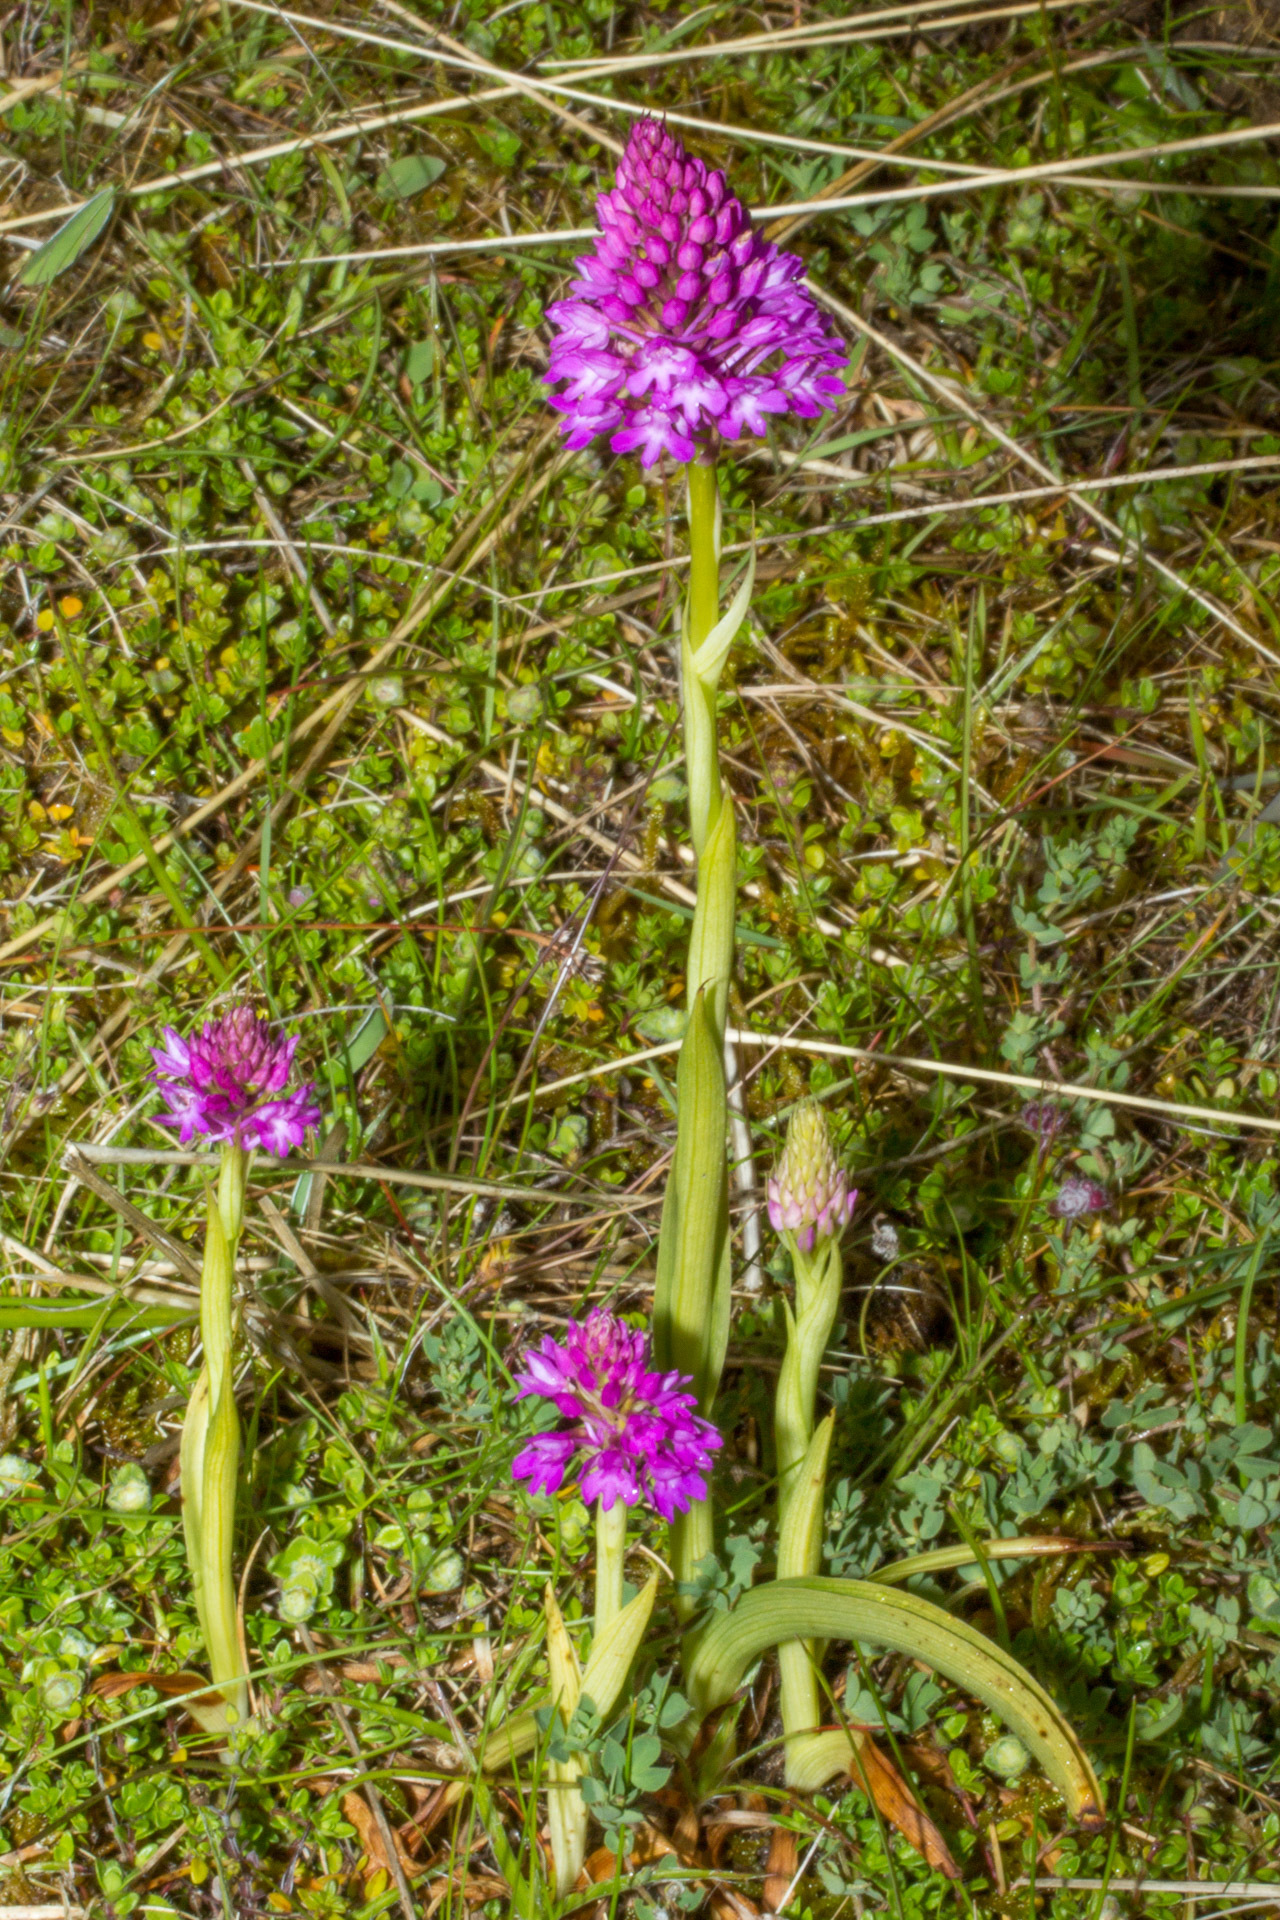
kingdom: Plantae
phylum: Tracheophyta
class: Liliopsida
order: Asparagales
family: Orchidaceae
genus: Anacamptis
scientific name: Anacamptis pyramidalis
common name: Pyramidal orchid
